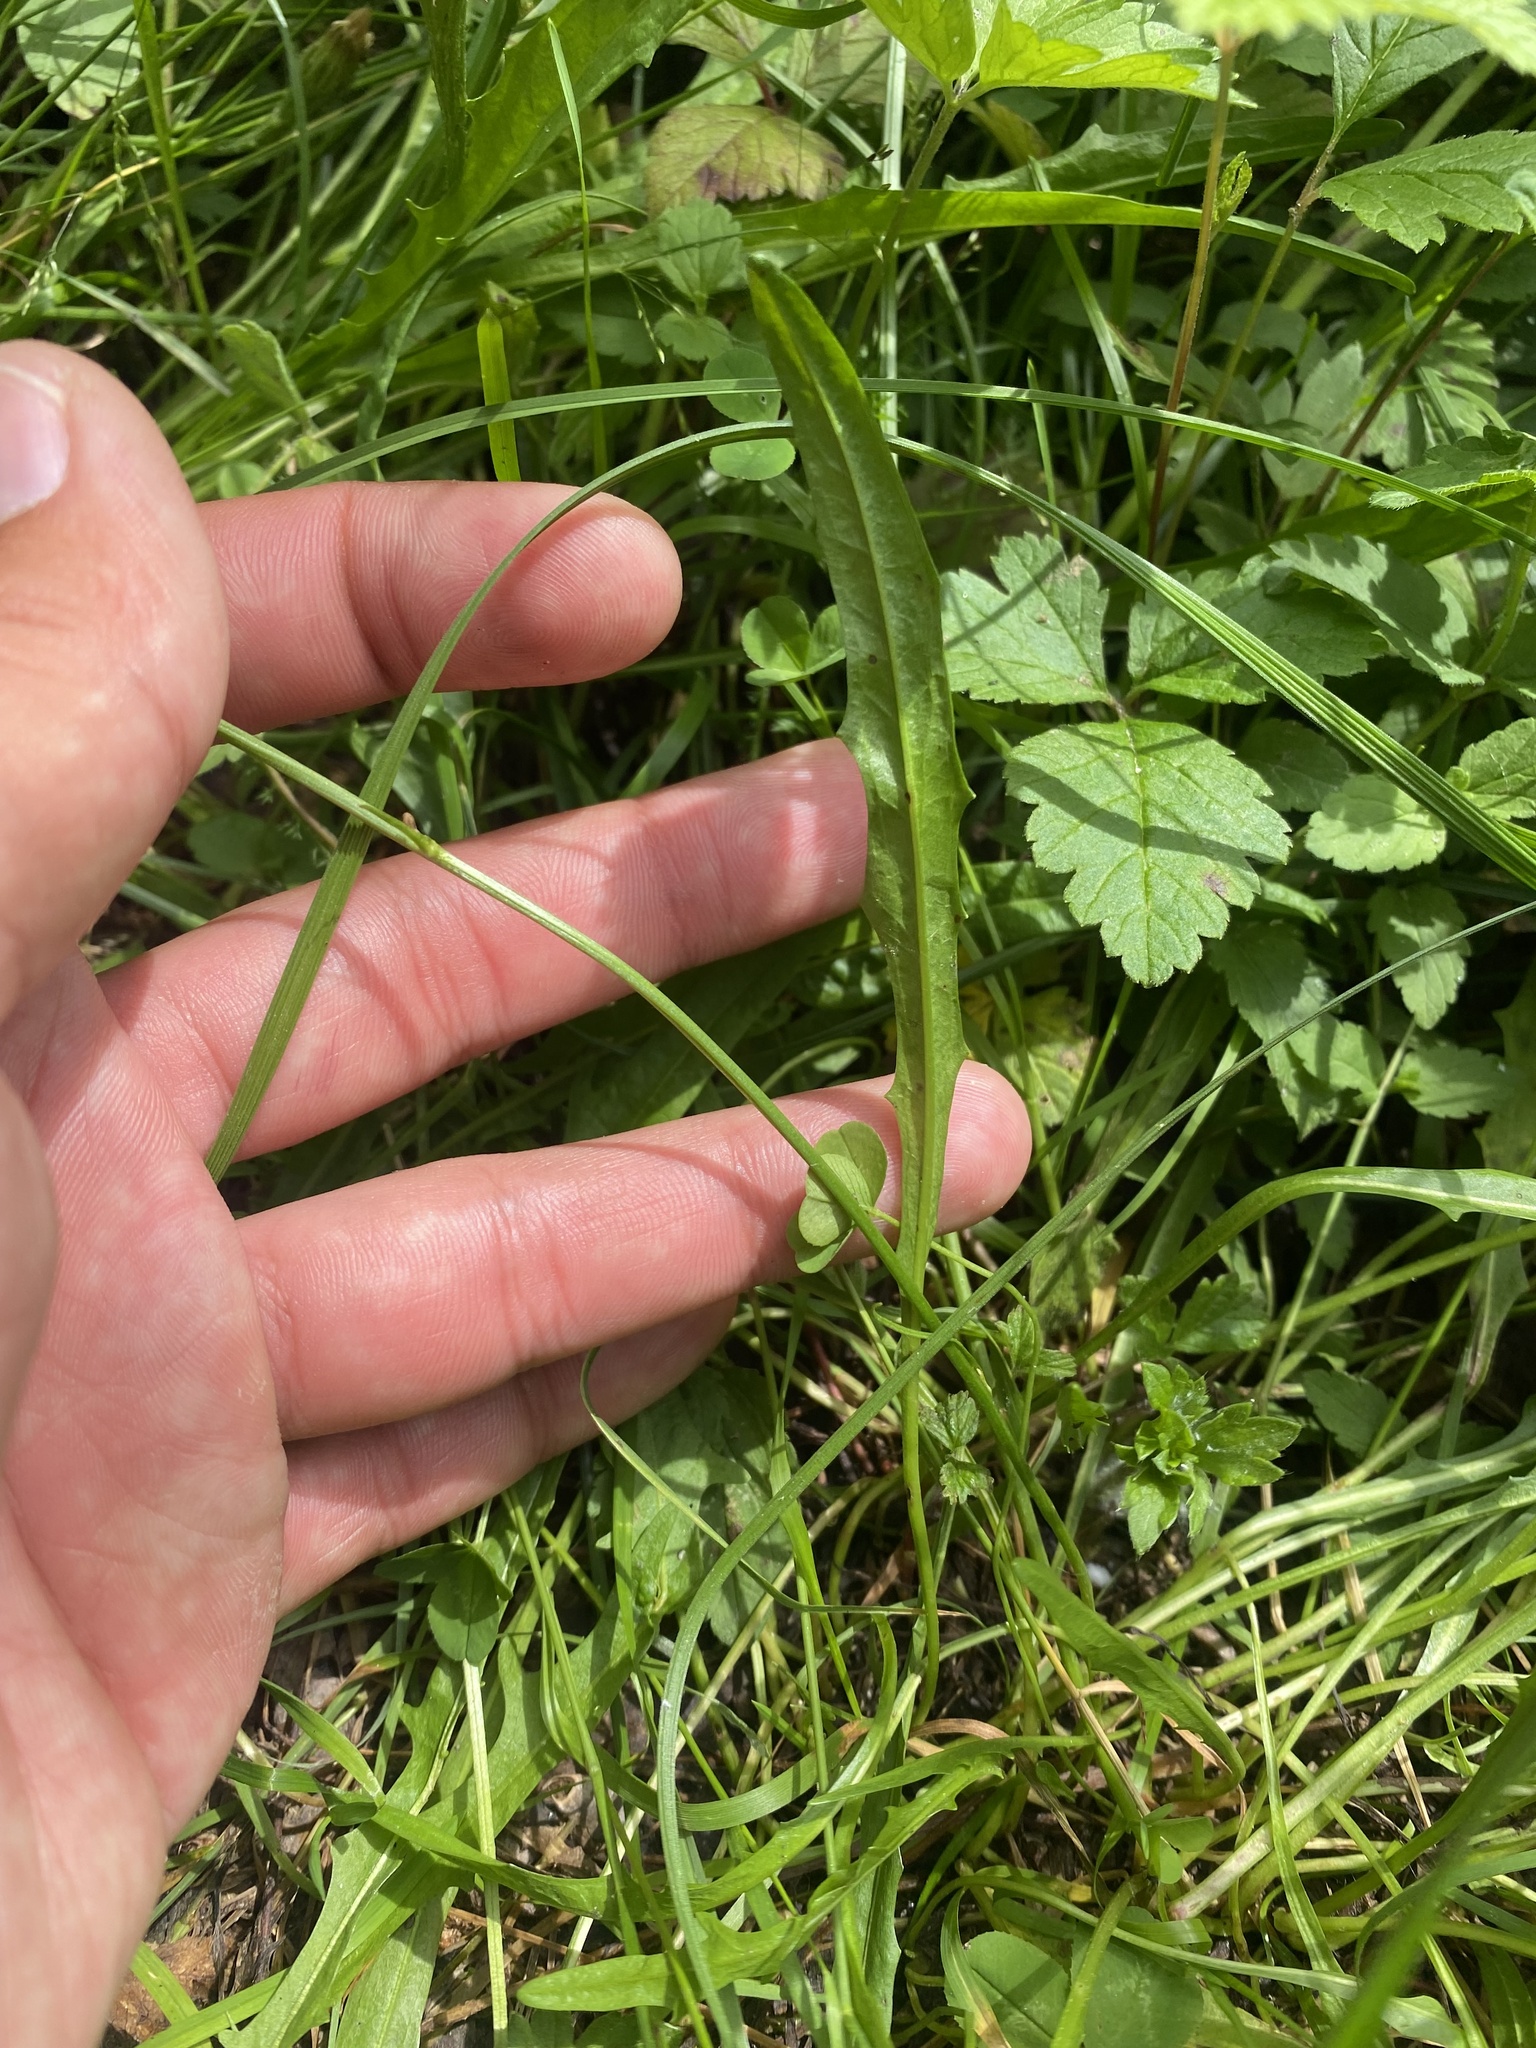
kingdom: Plantae
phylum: Tracheophyta
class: Magnoliopsida
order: Asterales
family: Asteraceae
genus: Scorzoneroides
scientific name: Scorzoneroides autumnalis
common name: Autumn hawkbit
